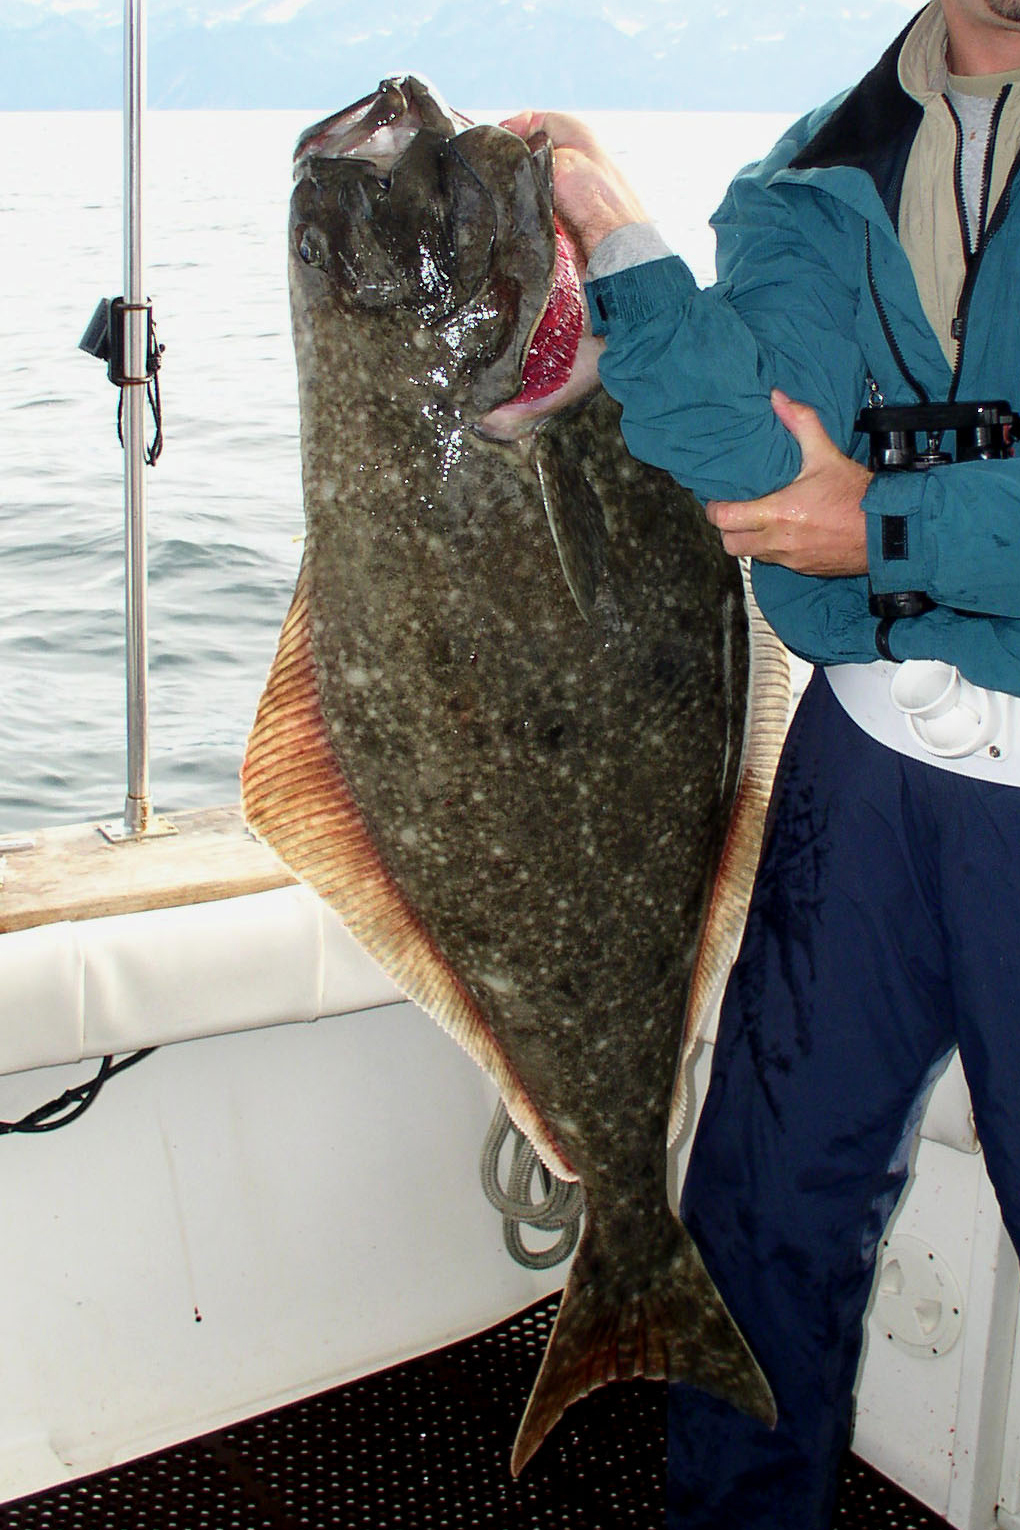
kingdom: Animalia
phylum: Chordata
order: Pleuronectiformes
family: Pleuronectidae
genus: Hippoglossus
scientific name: Hippoglossus stenolepis
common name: Pacific halibut
